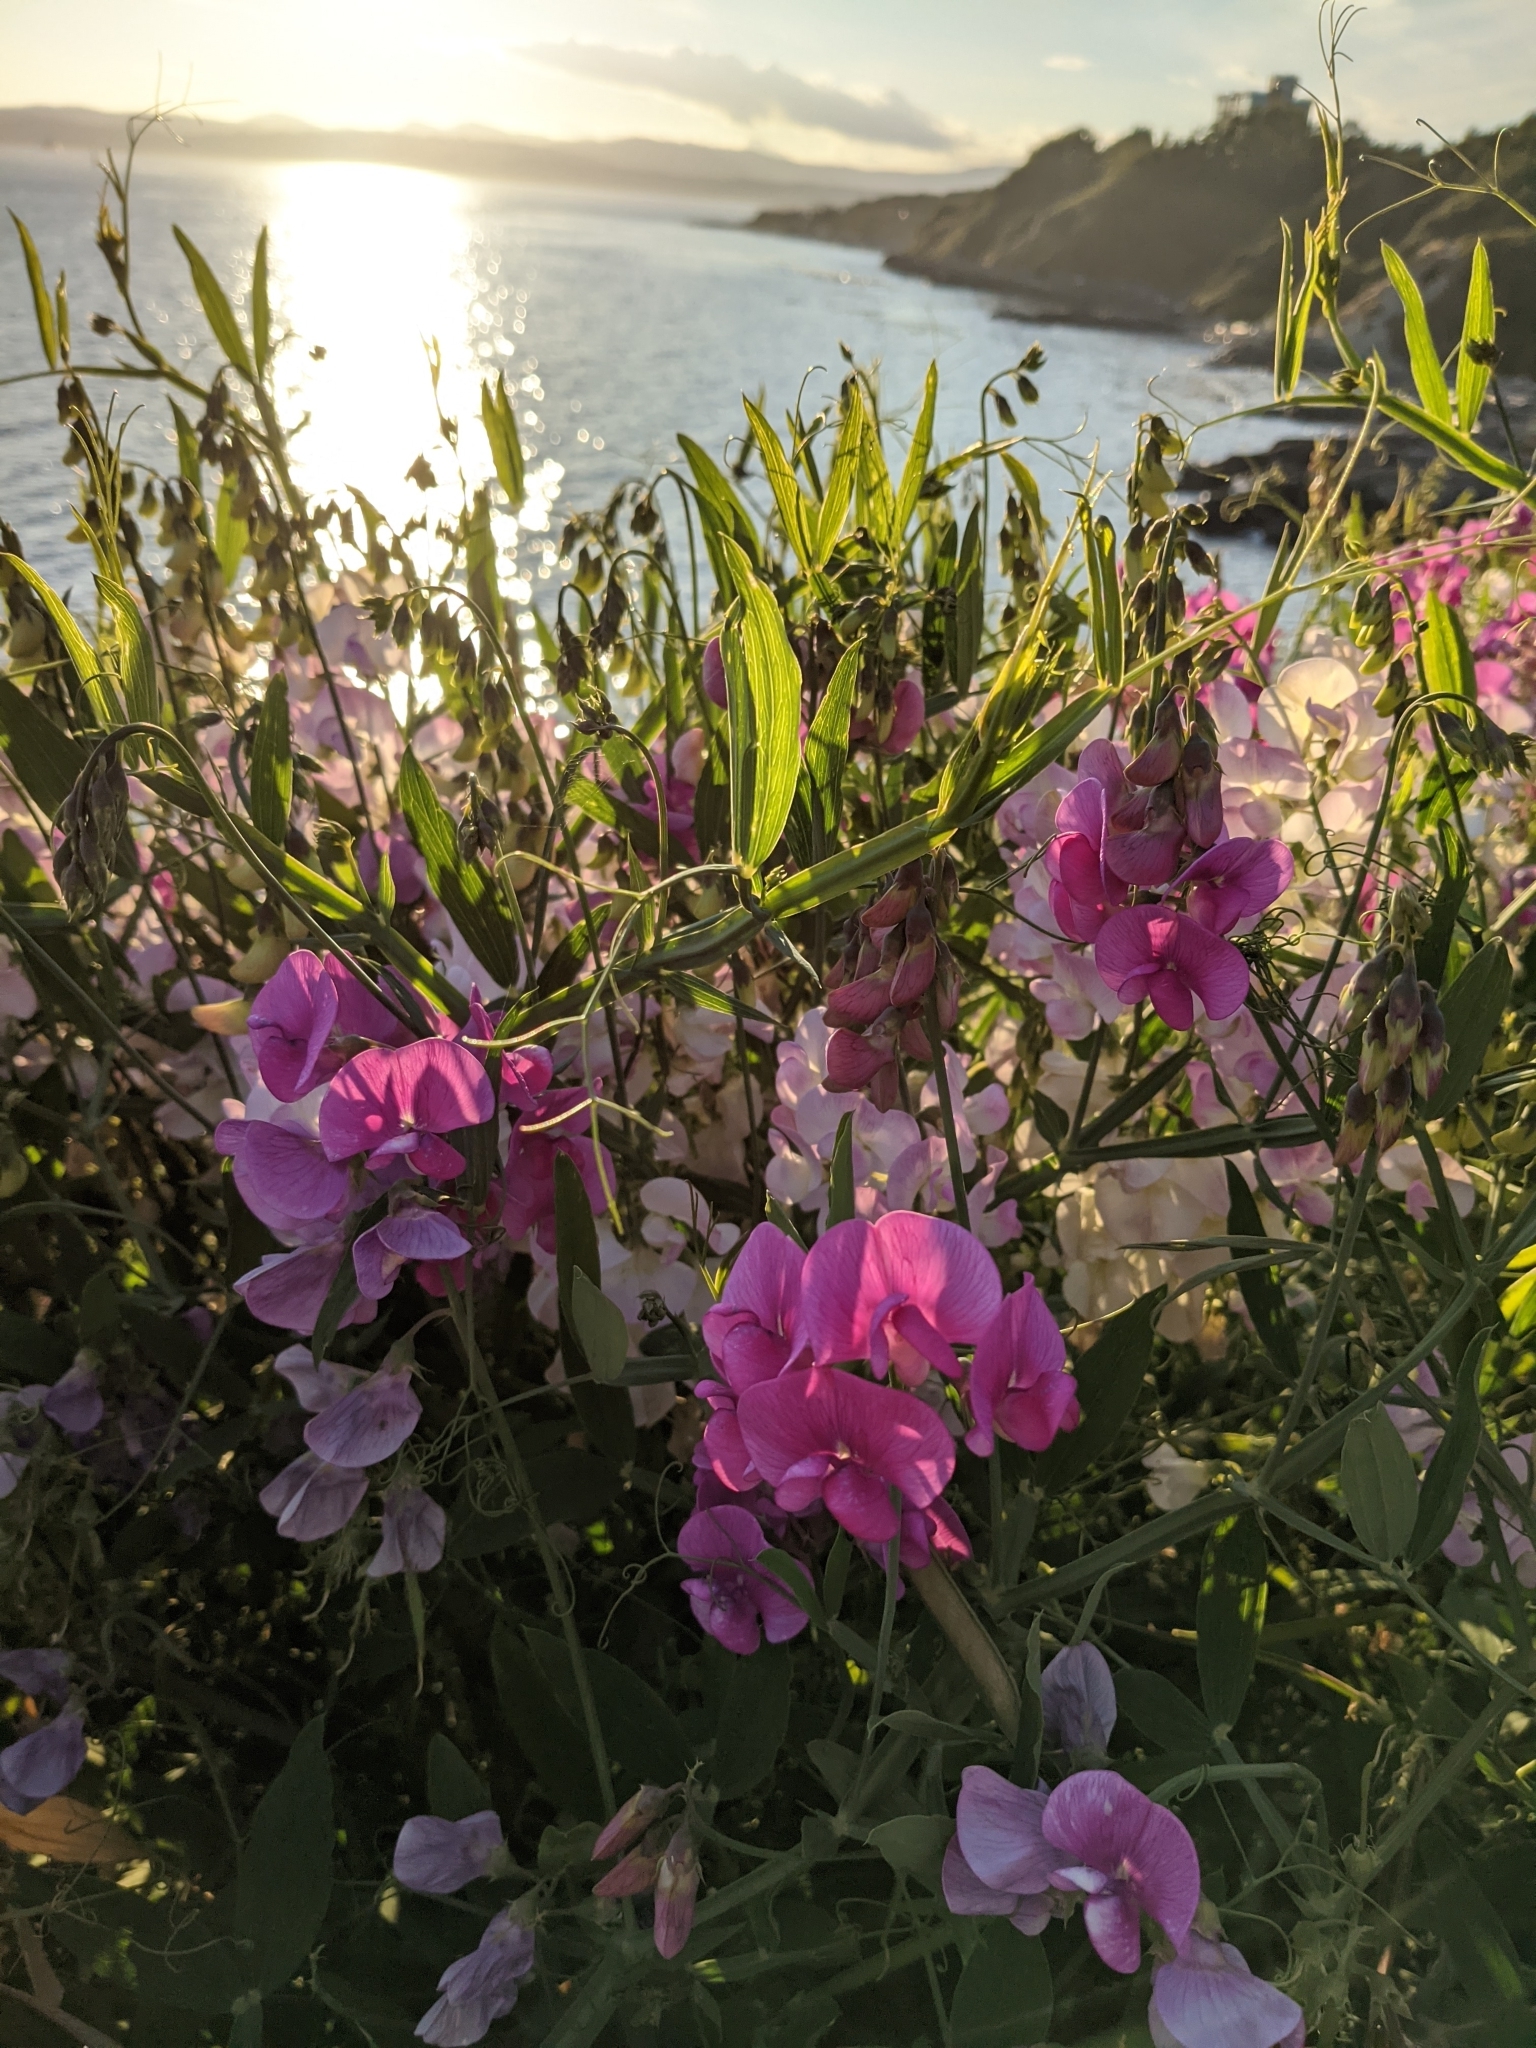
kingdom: Plantae
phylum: Tracheophyta
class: Magnoliopsida
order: Fabales
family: Fabaceae
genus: Lathyrus
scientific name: Lathyrus latifolius
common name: Perennial pea
